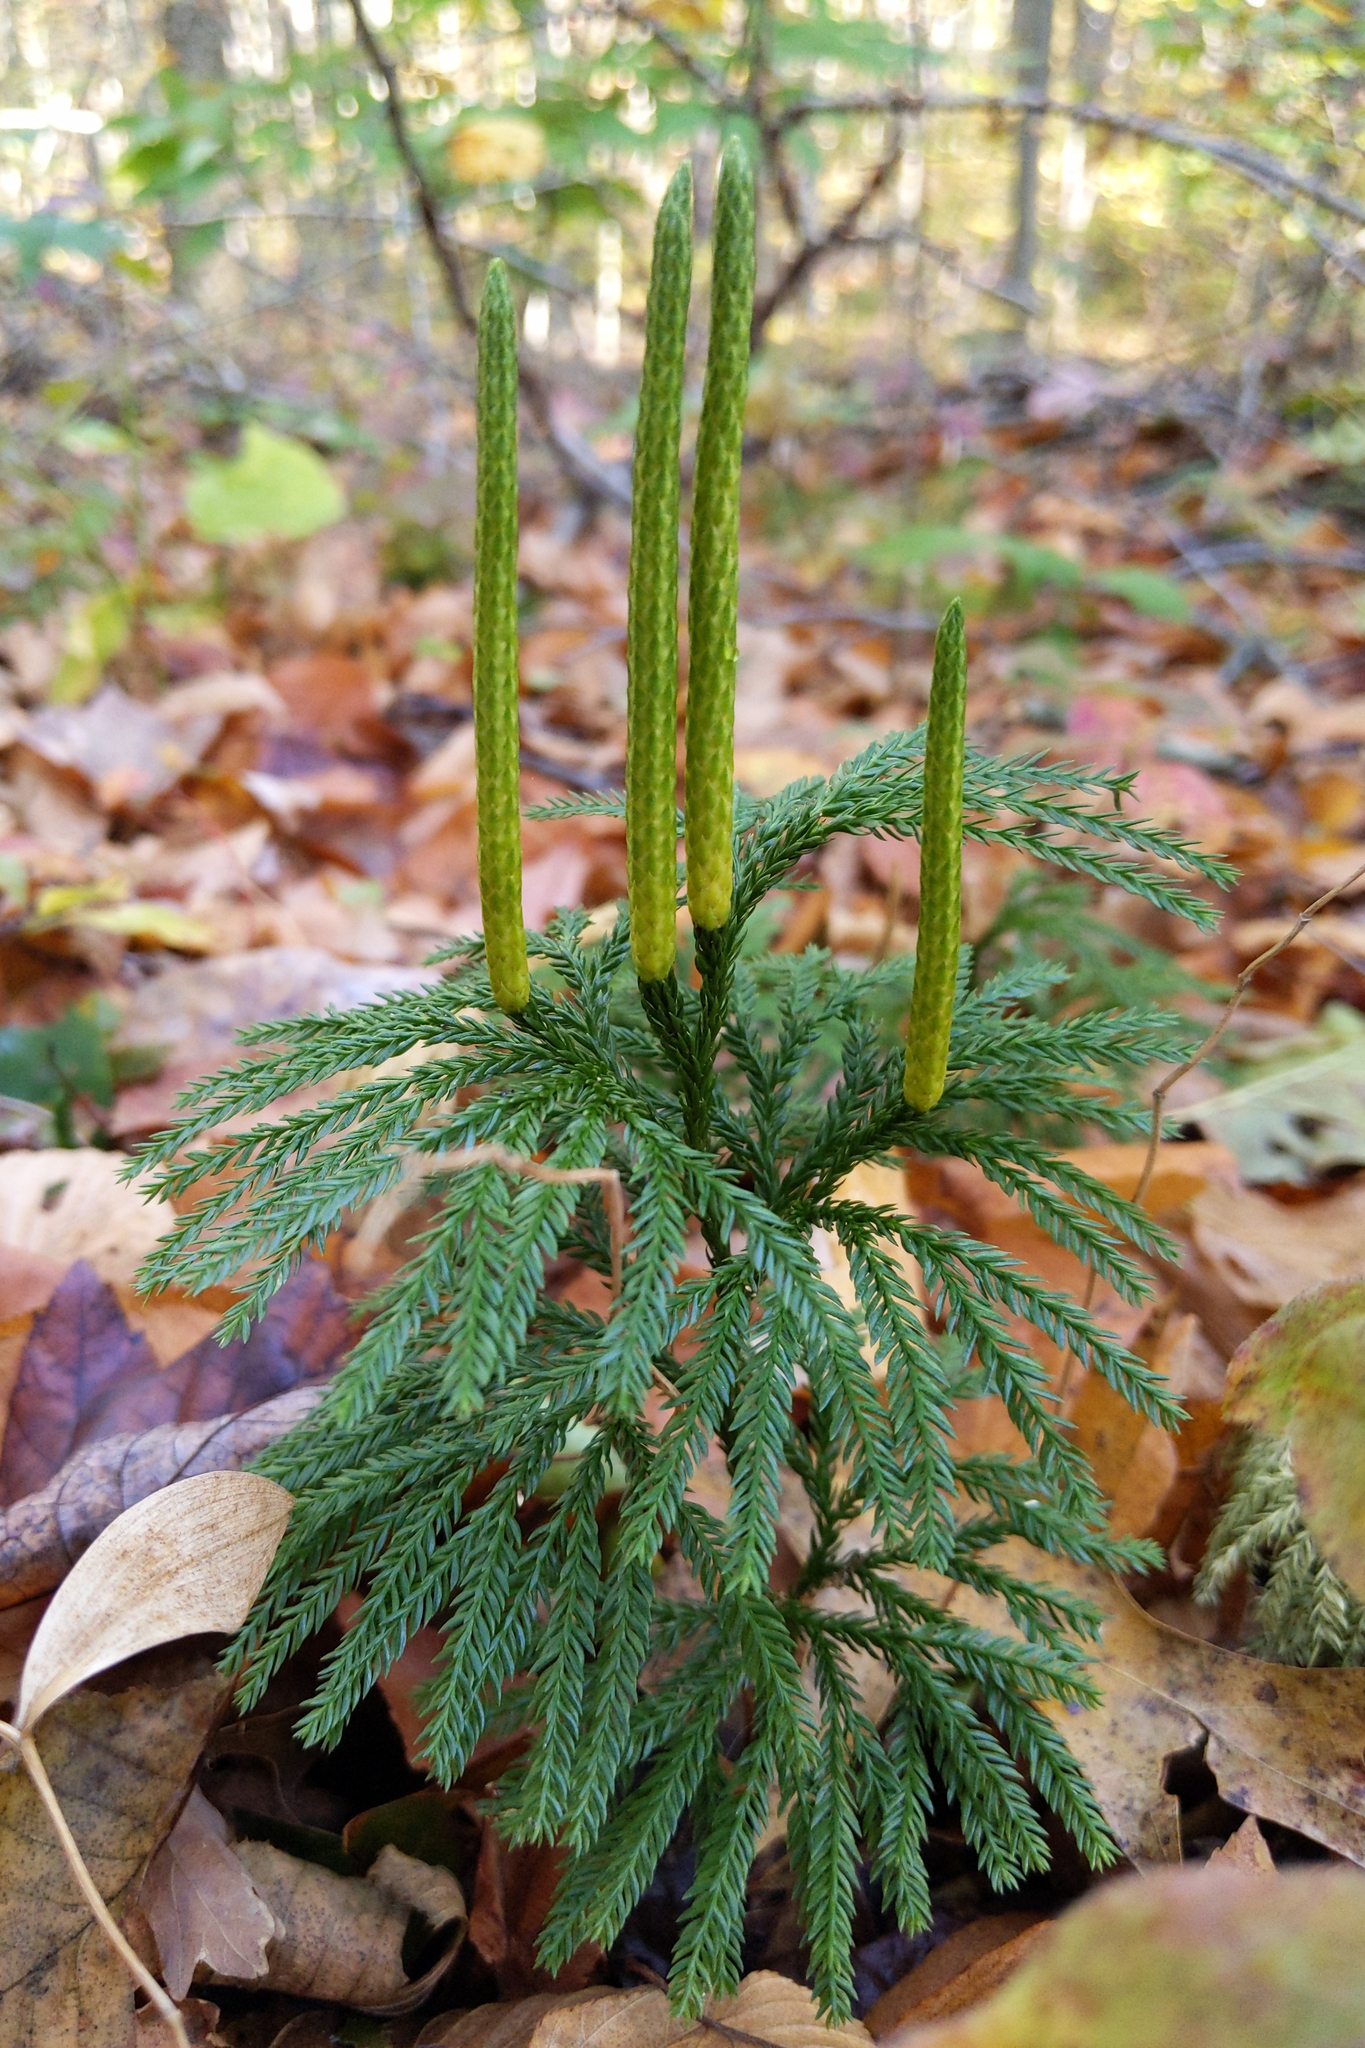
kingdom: Plantae
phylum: Tracheophyta
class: Lycopodiopsida
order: Lycopodiales
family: Lycopodiaceae
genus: Dendrolycopodium
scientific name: Dendrolycopodium obscurum
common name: Common ground-pine
